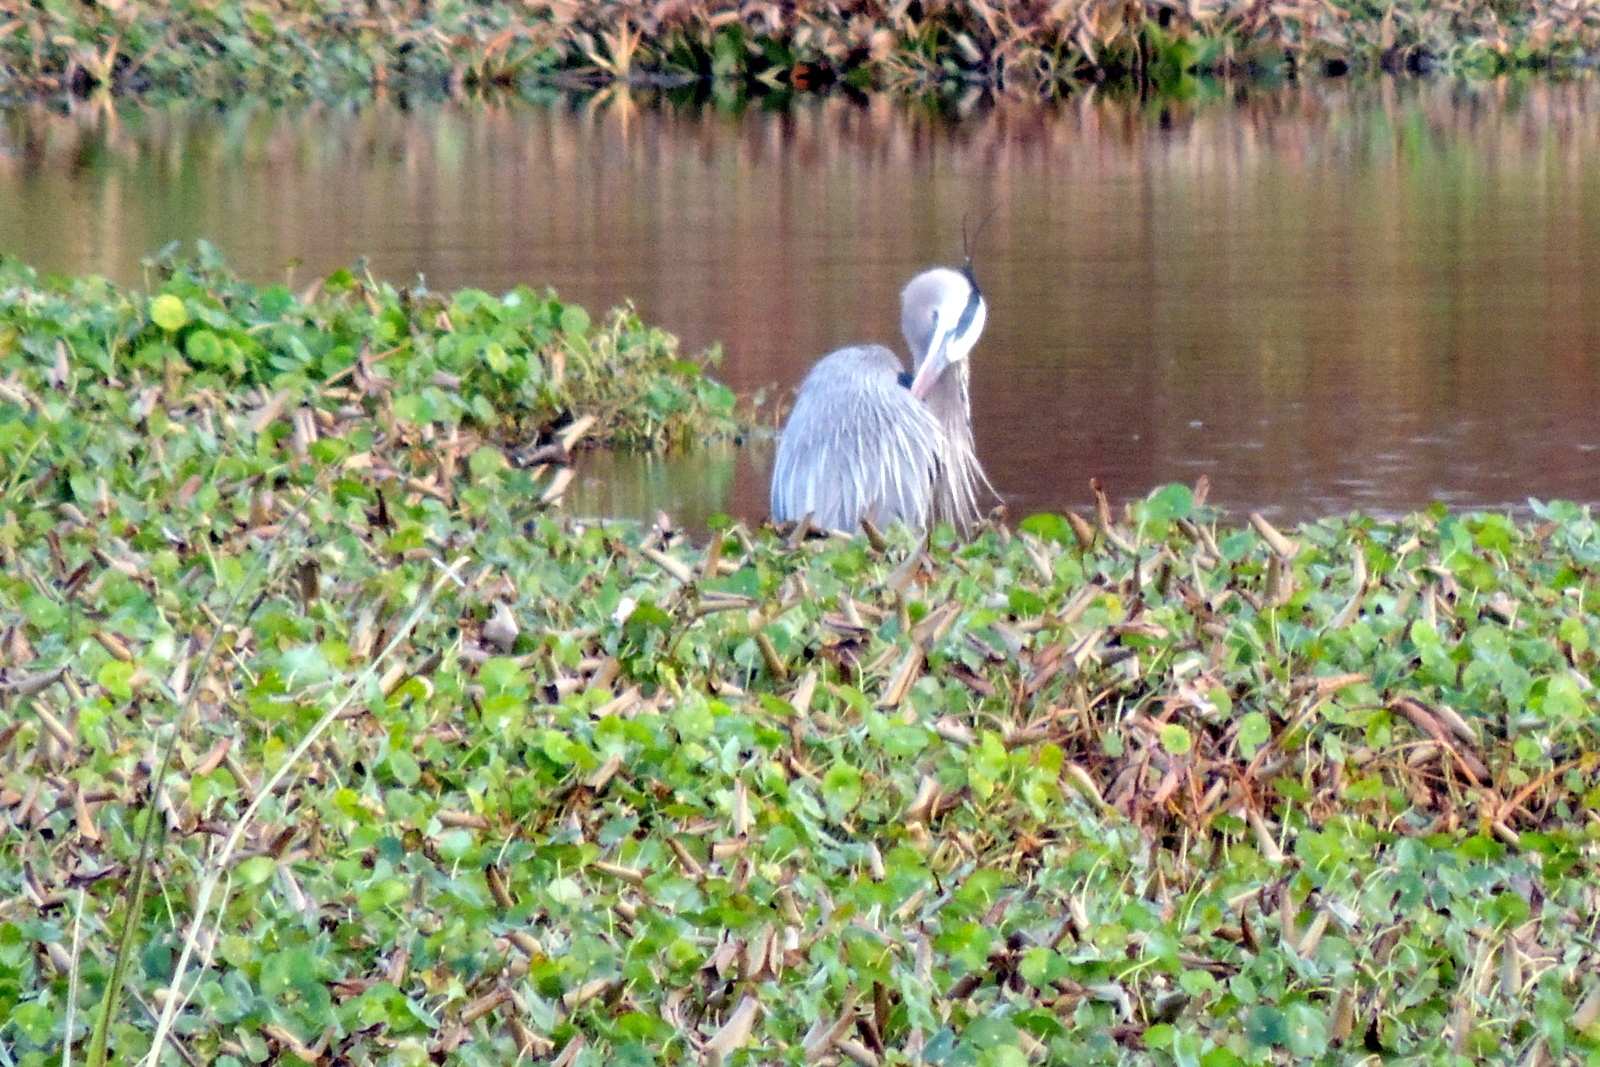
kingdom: Animalia
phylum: Chordata
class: Aves
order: Pelecaniformes
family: Ardeidae
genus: Ardea
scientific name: Ardea herodias
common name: Great blue heron
